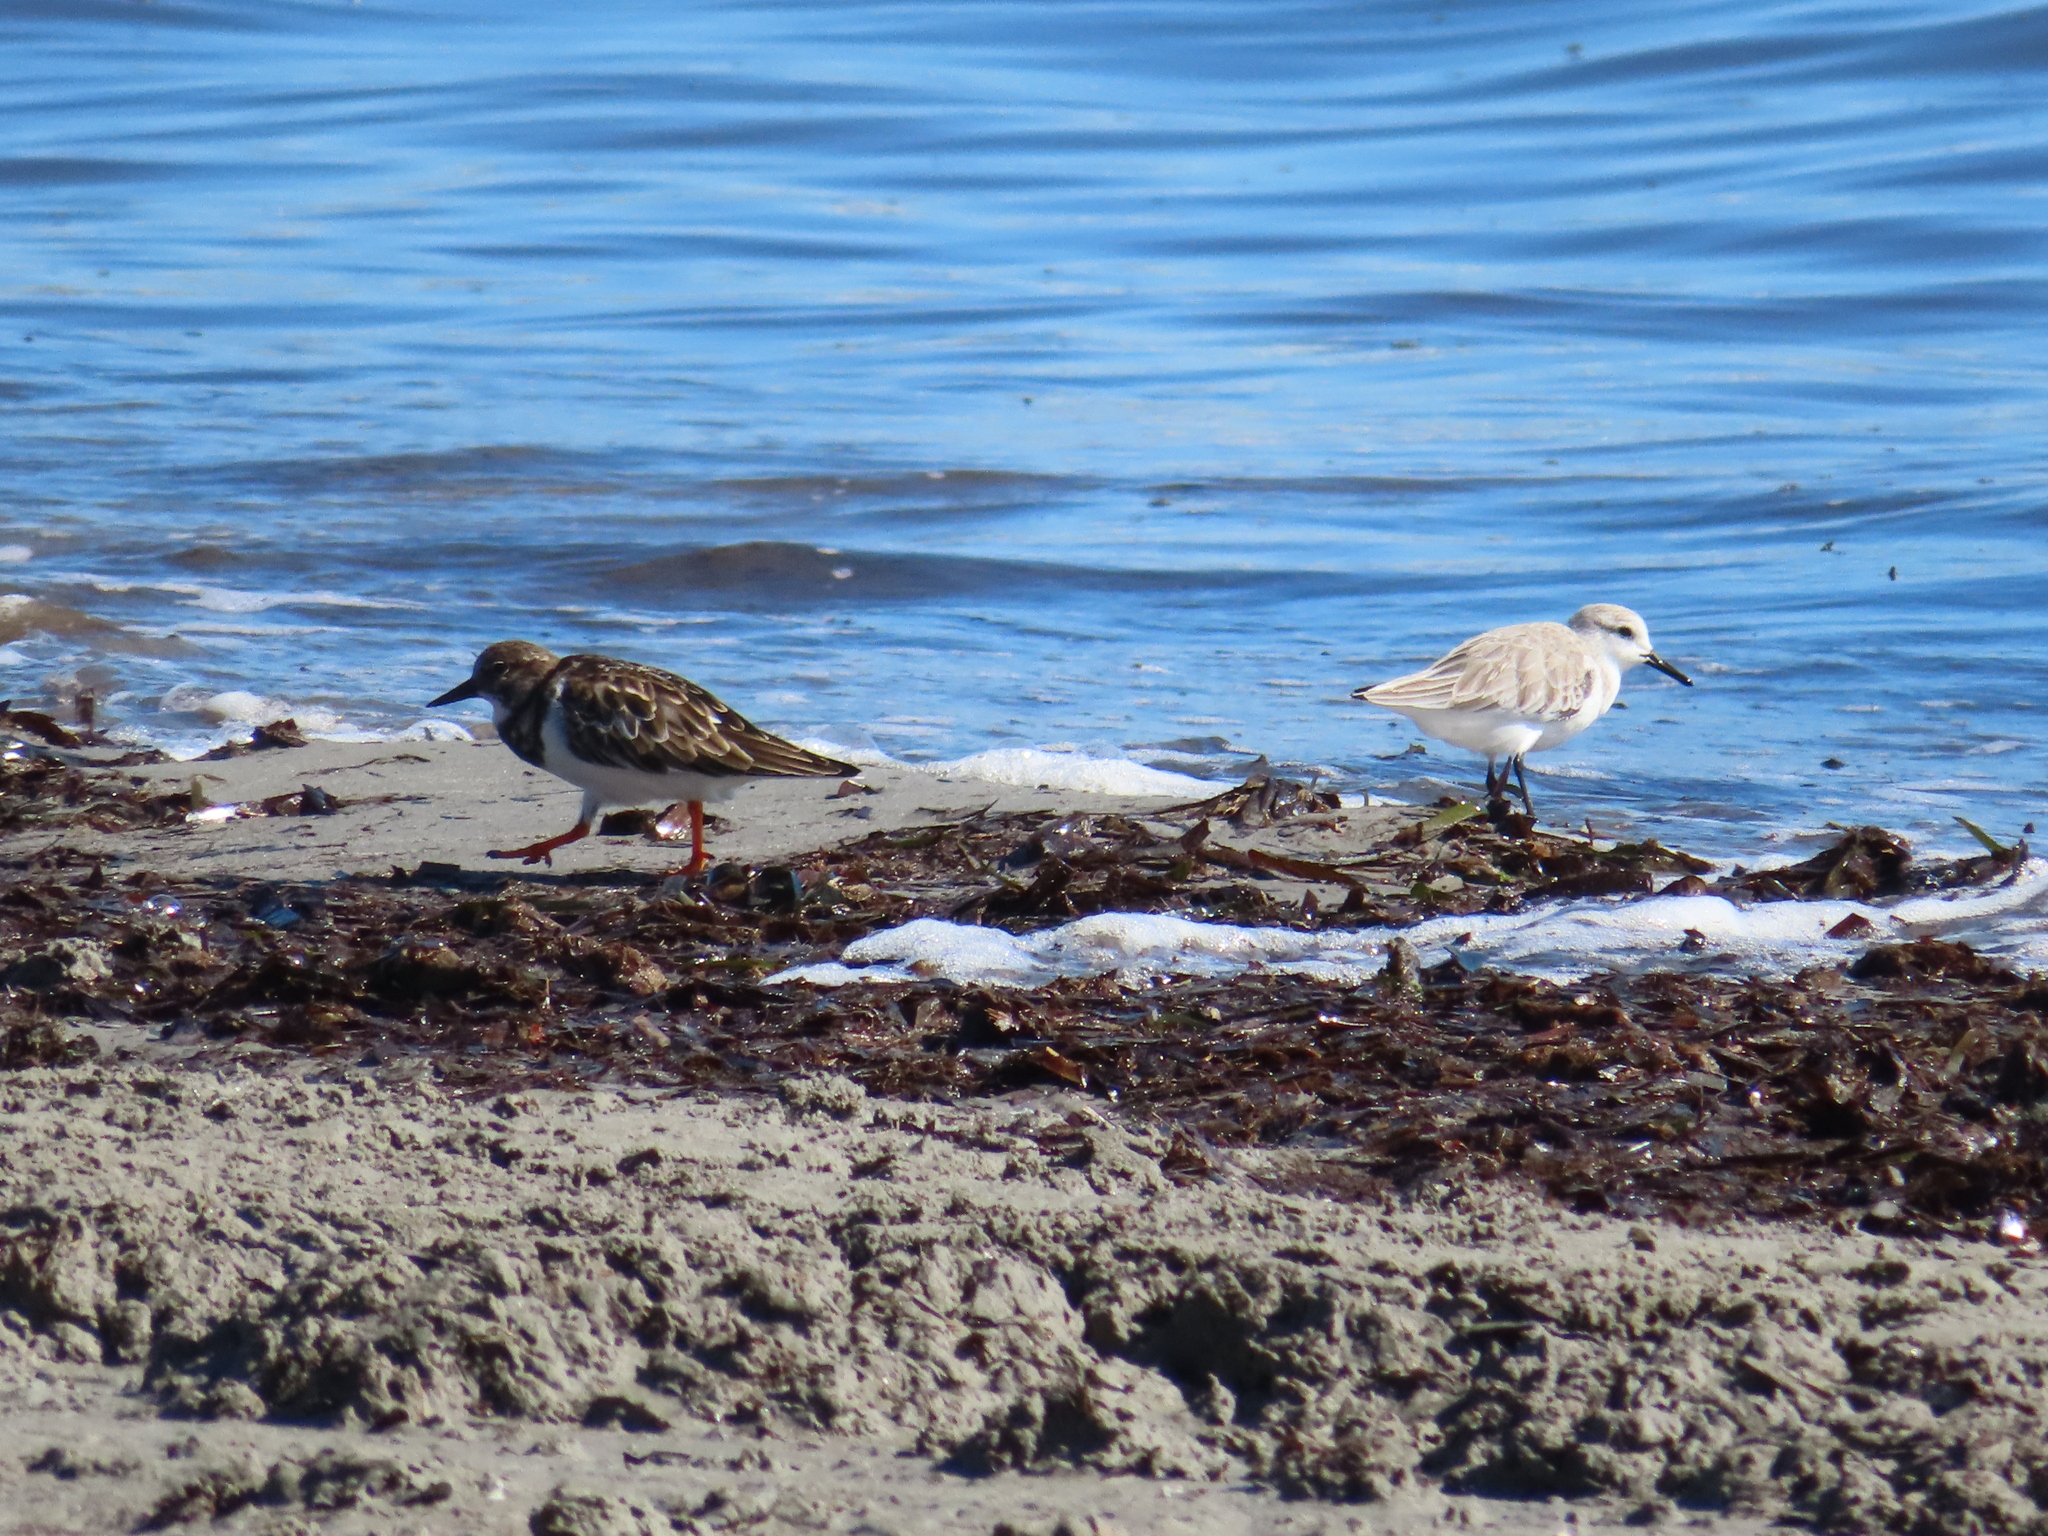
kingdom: Animalia
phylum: Chordata
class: Aves
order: Charadriiformes
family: Scolopacidae
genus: Arenaria
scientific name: Arenaria interpres
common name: Ruddy turnstone
